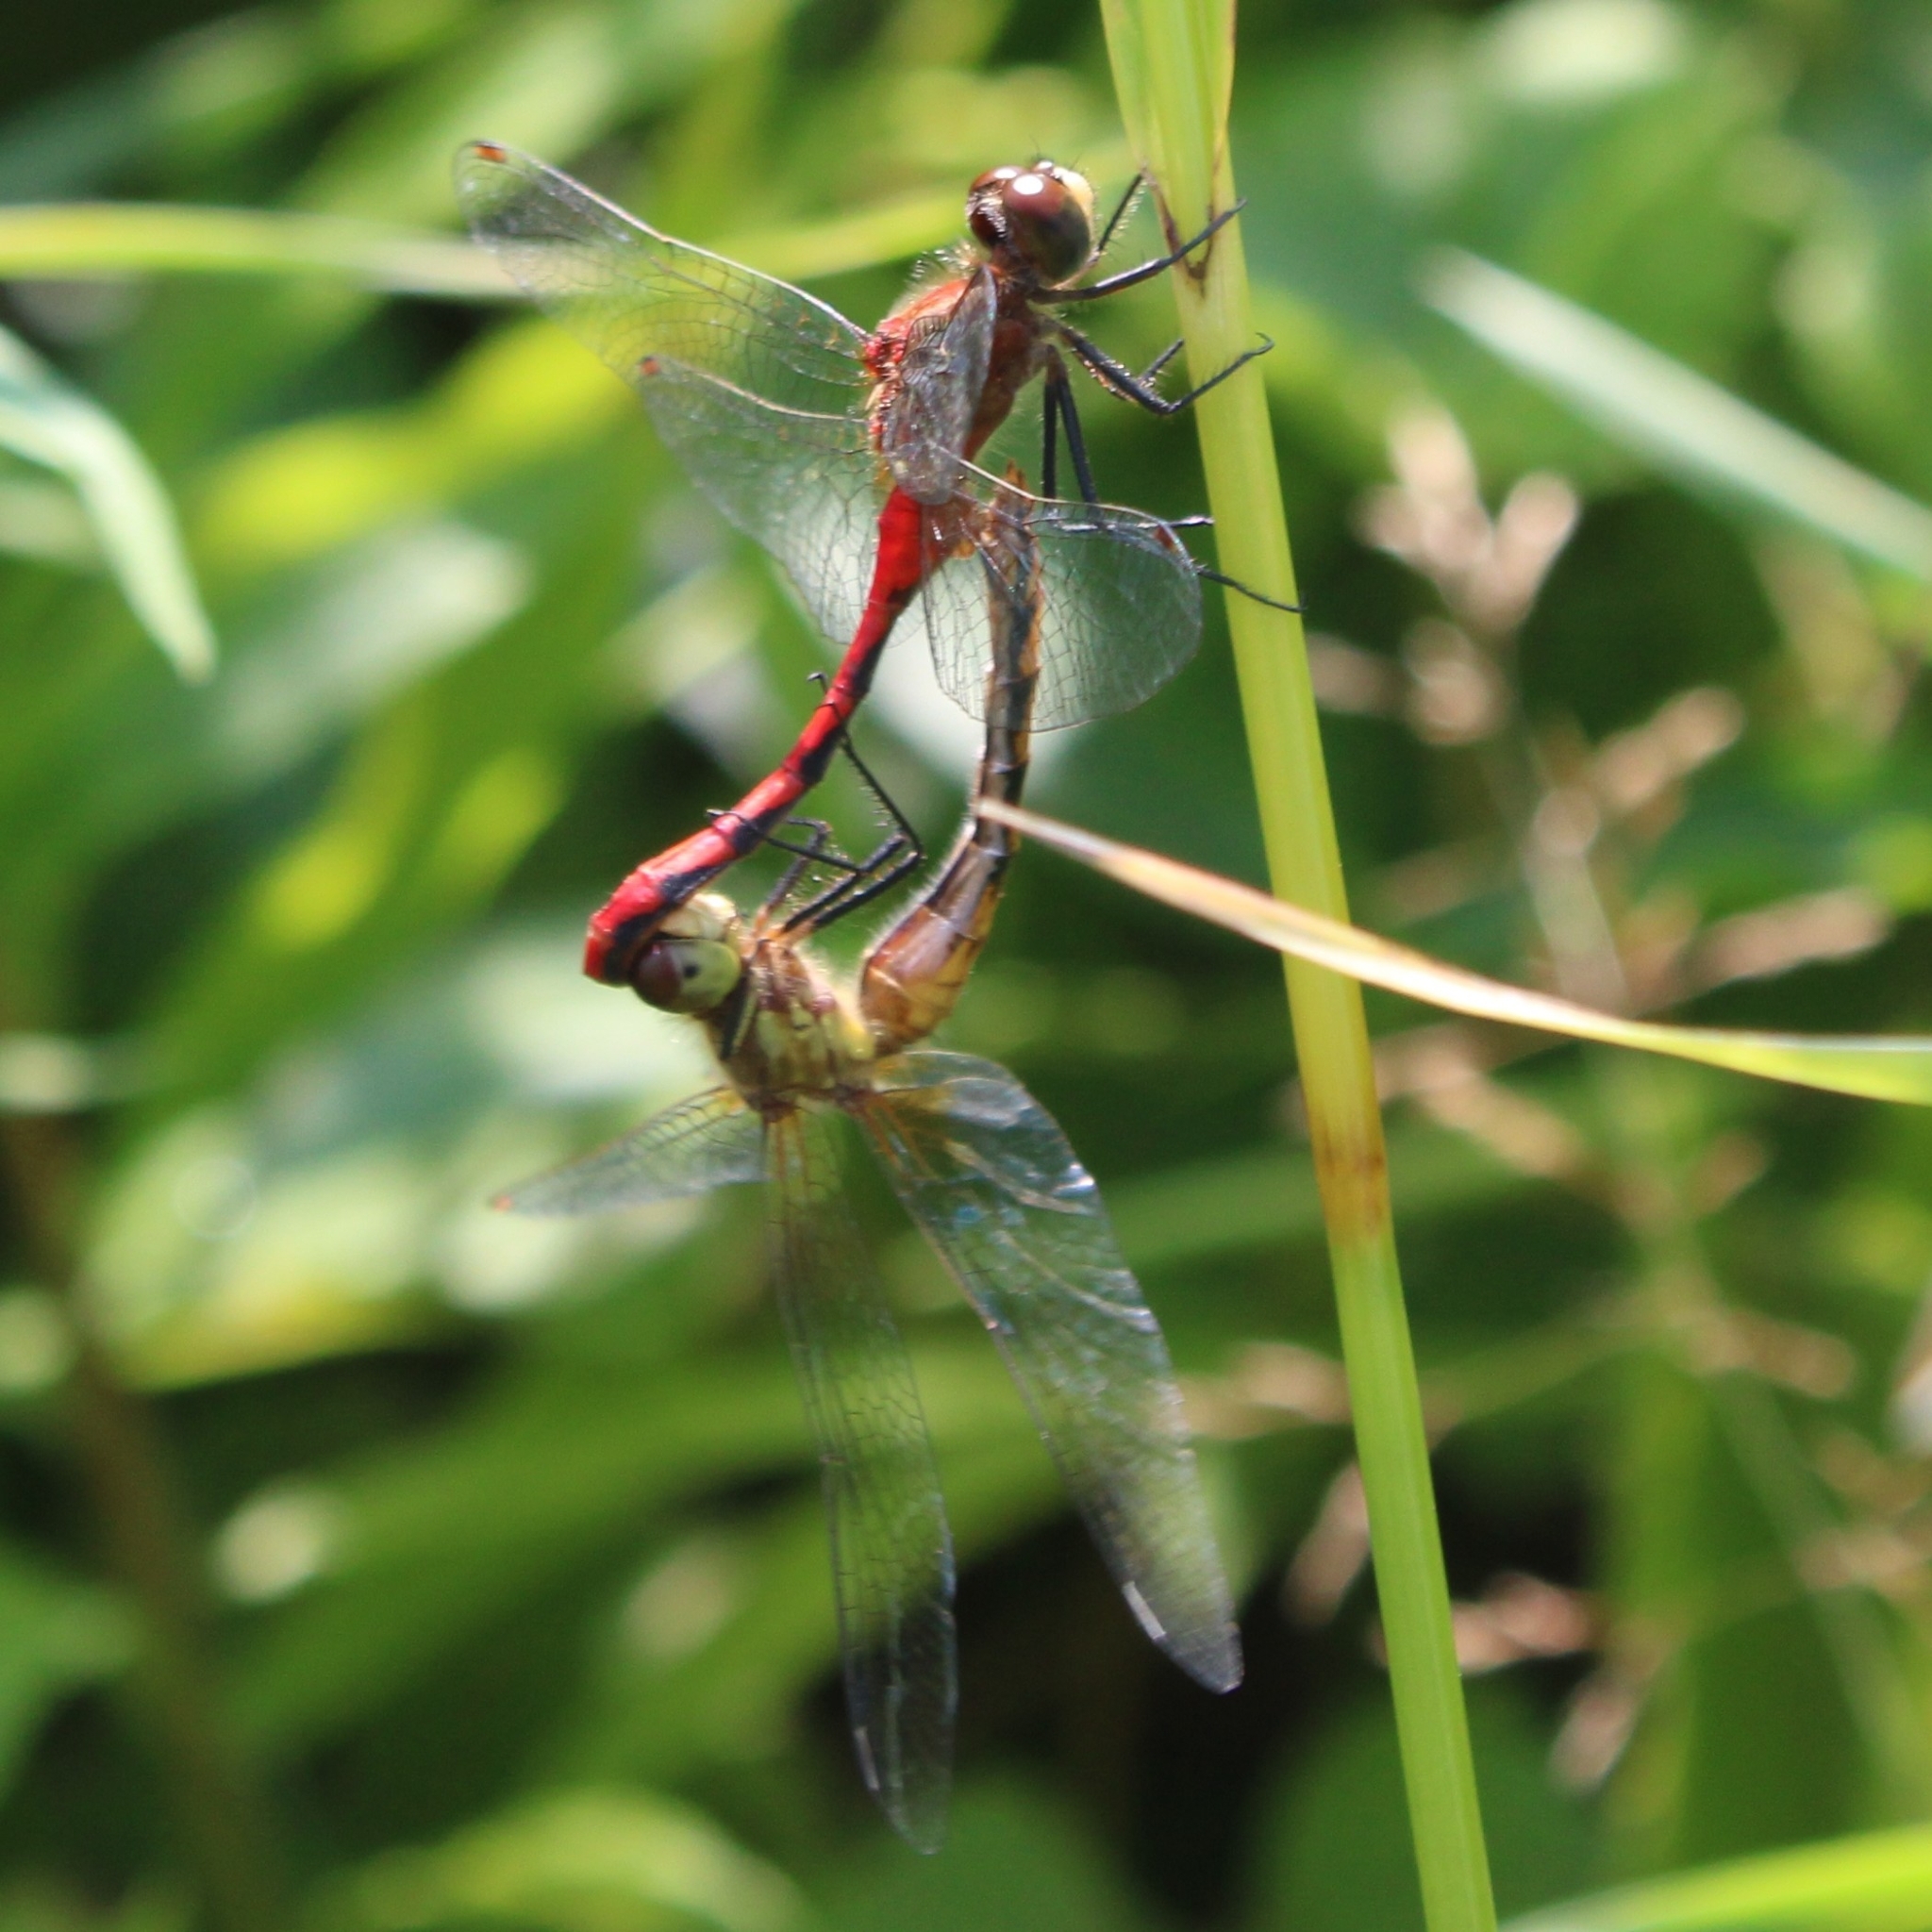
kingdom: Animalia
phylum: Arthropoda
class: Insecta
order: Odonata
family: Libellulidae
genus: Sympetrum
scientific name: Sympetrum obtrusum
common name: White-faced meadowhawk
